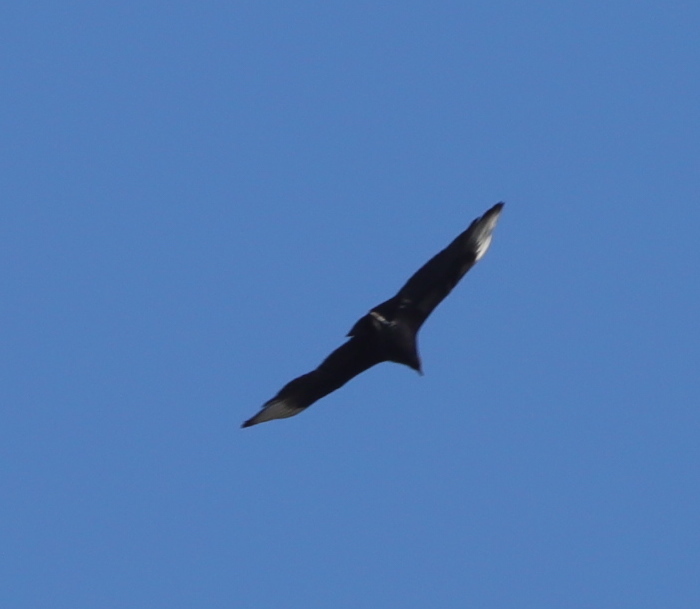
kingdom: Animalia
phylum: Chordata
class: Aves
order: Accipitriformes
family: Cathartidae
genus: Coragyps
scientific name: Coragyps atratus
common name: Black vulture
